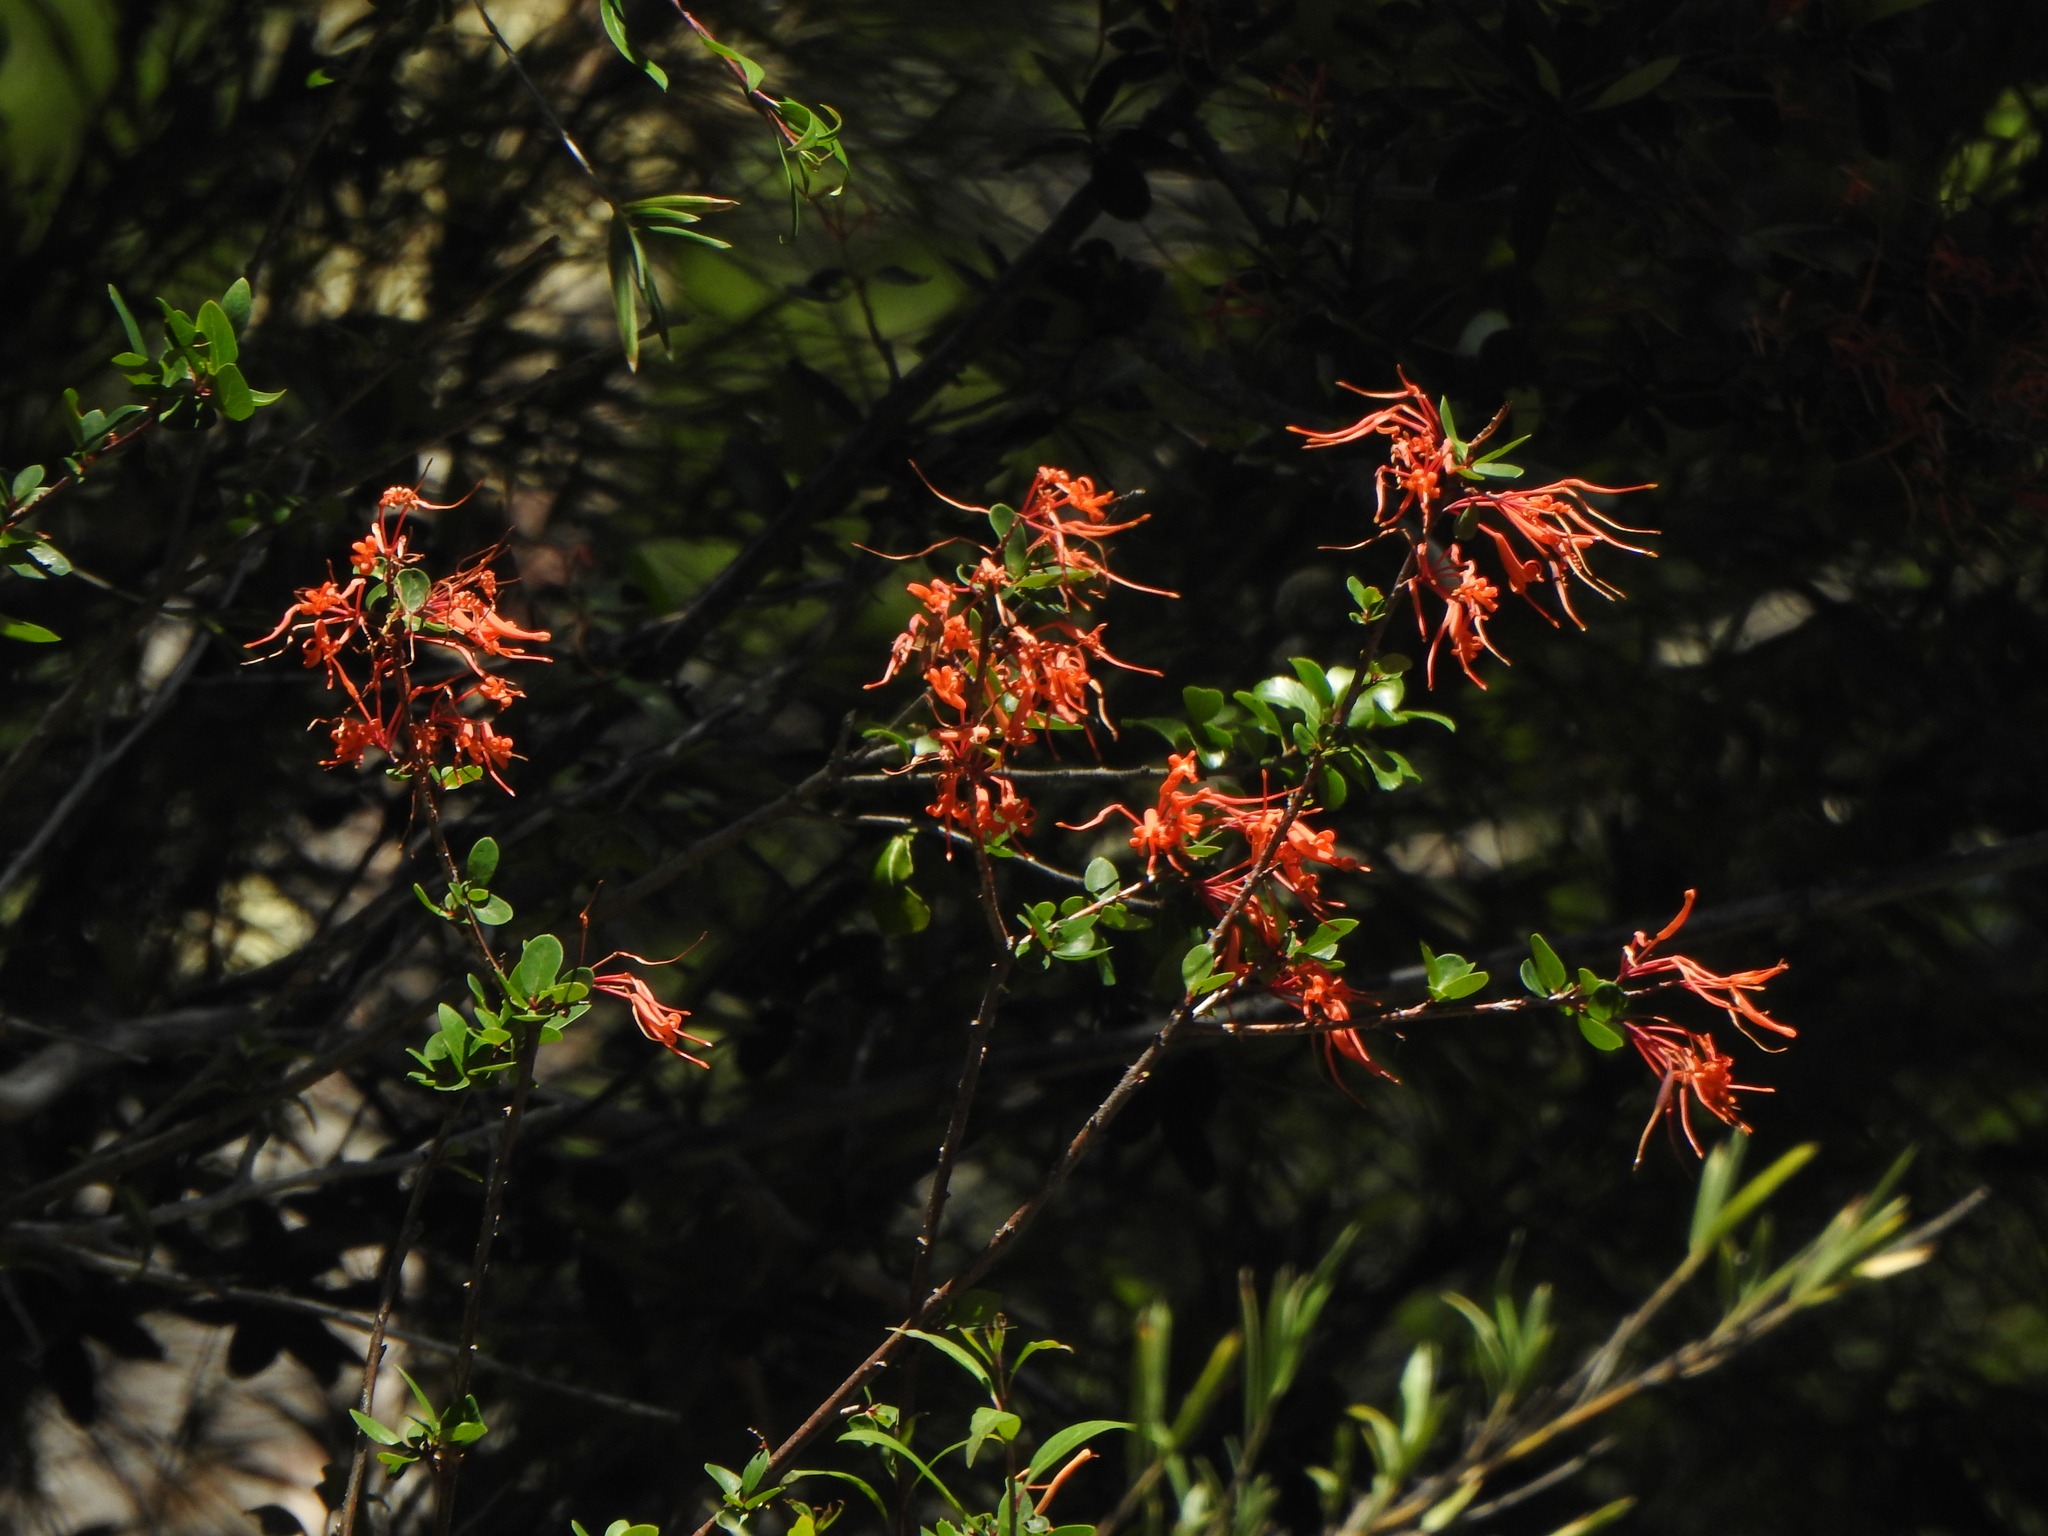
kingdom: Plantae
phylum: Tracheophyta
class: Magnoliopsida
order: Proteales
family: Proteaceae
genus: Embothrium
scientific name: Embothrium coccineum
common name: Chilean firebush
